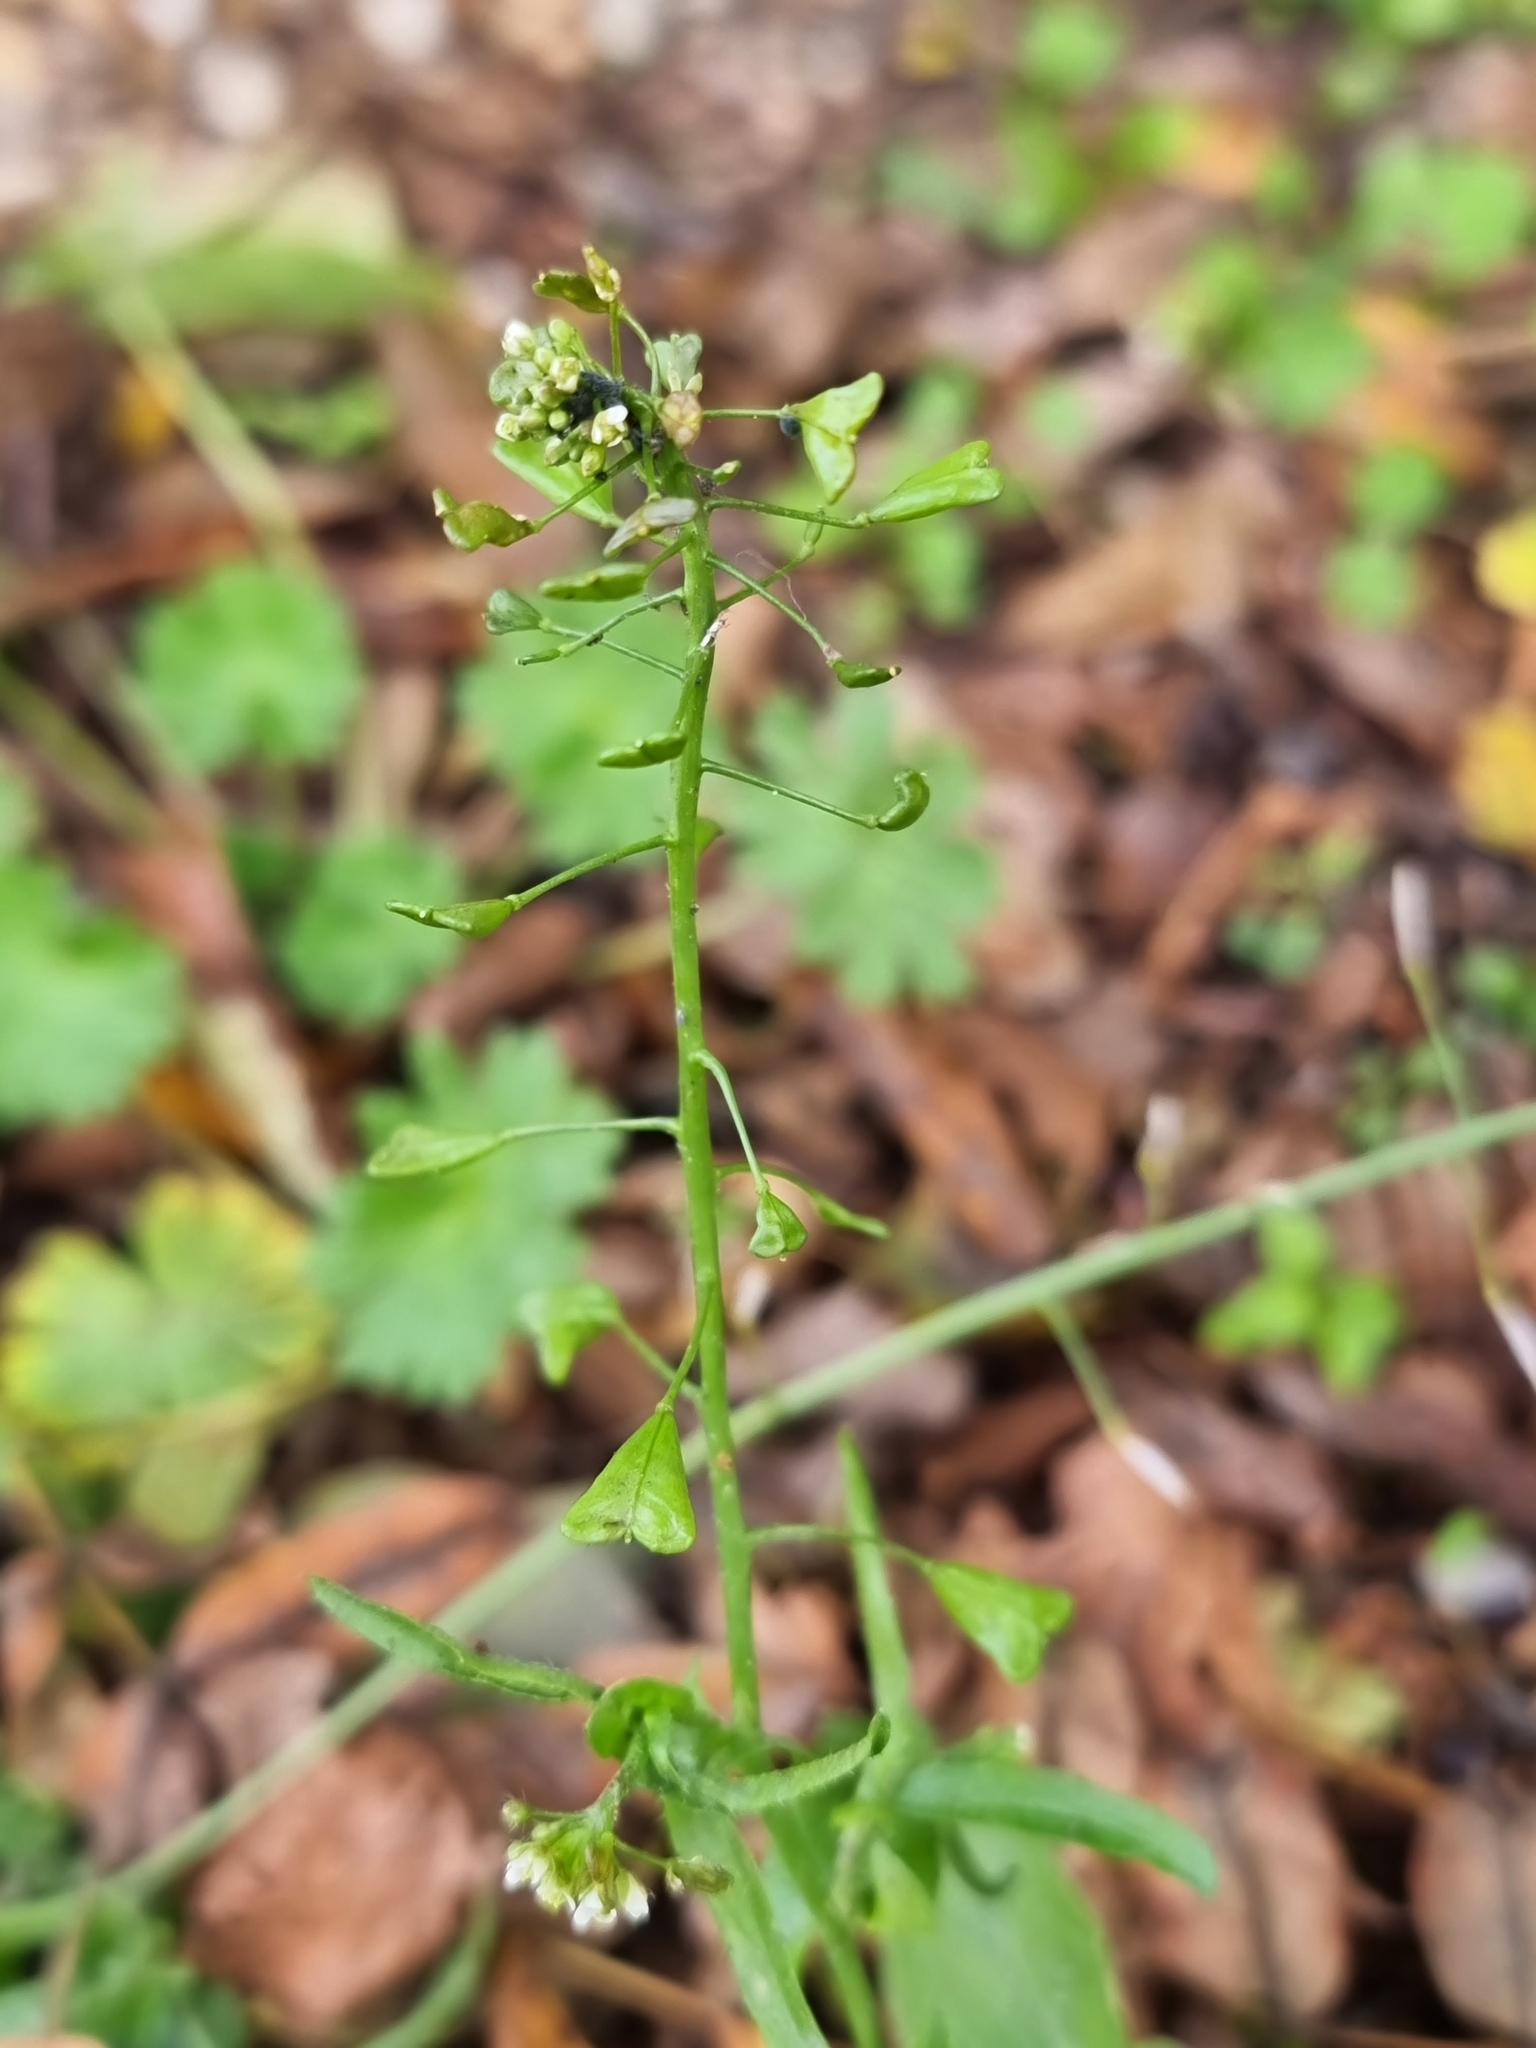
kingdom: Plantae
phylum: Tracheophyta
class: Magnoliopsida
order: Brassicales
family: Brassicaceae
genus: Capsella
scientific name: Capsella bursa-pastoris
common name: Shepherd's purse
